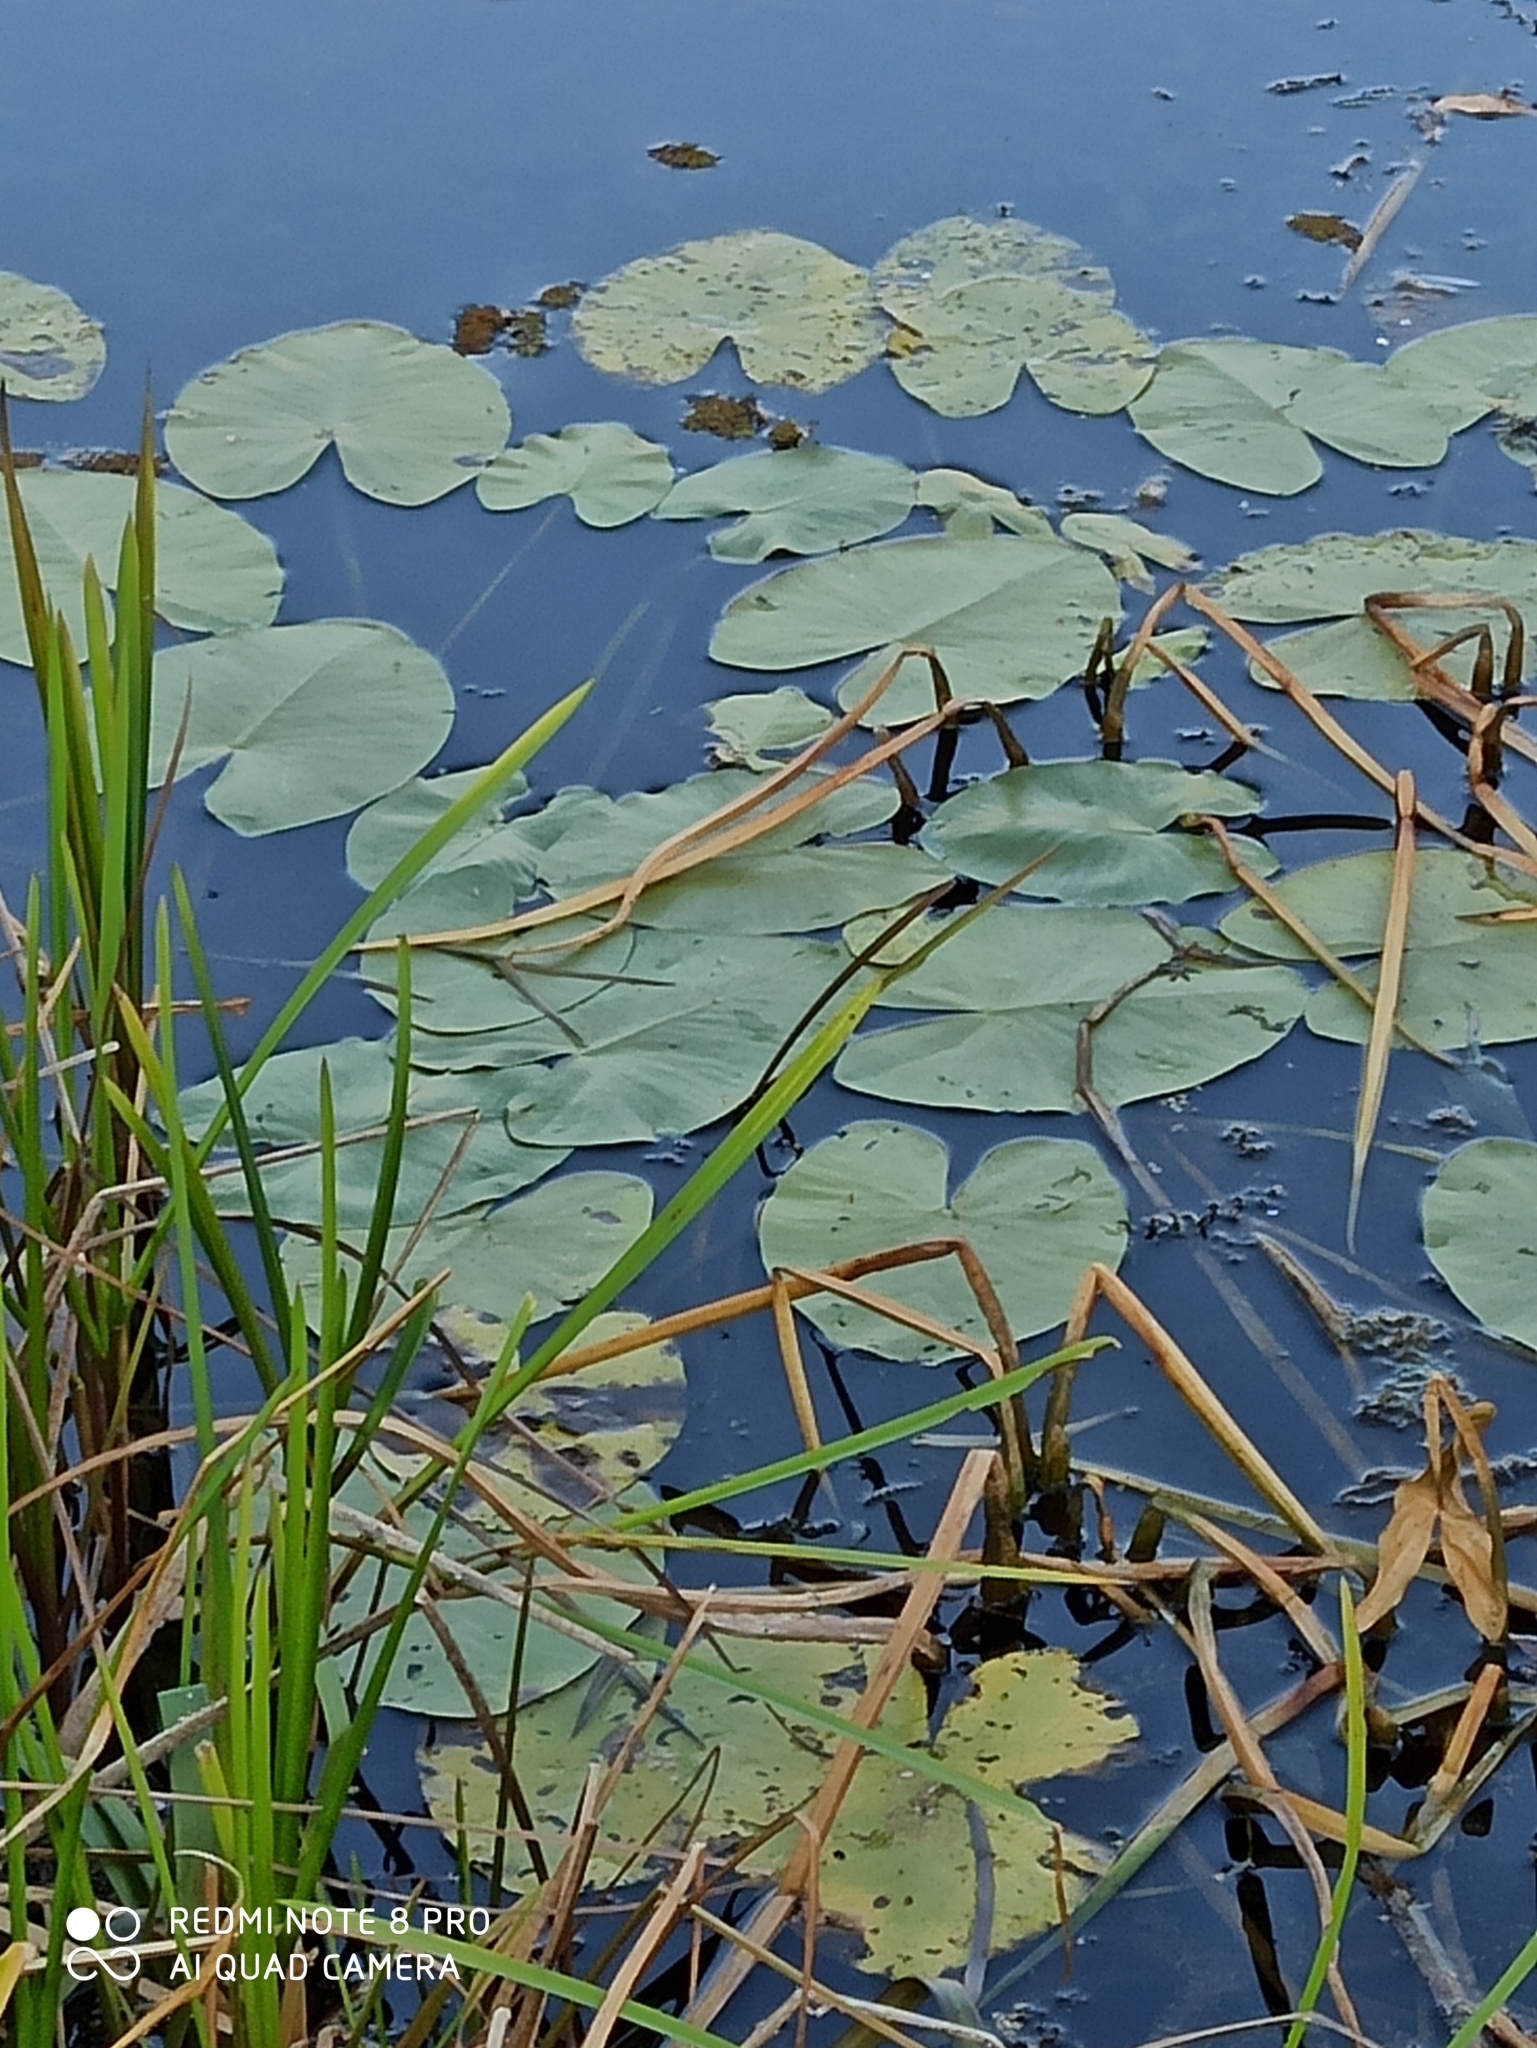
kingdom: Plantae
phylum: Tracheophyta
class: Magnoliopsida
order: Nymphaeales
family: Nymphaeaceae
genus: Nuphar
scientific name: Nuphar lutea
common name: Yellow water-lily
